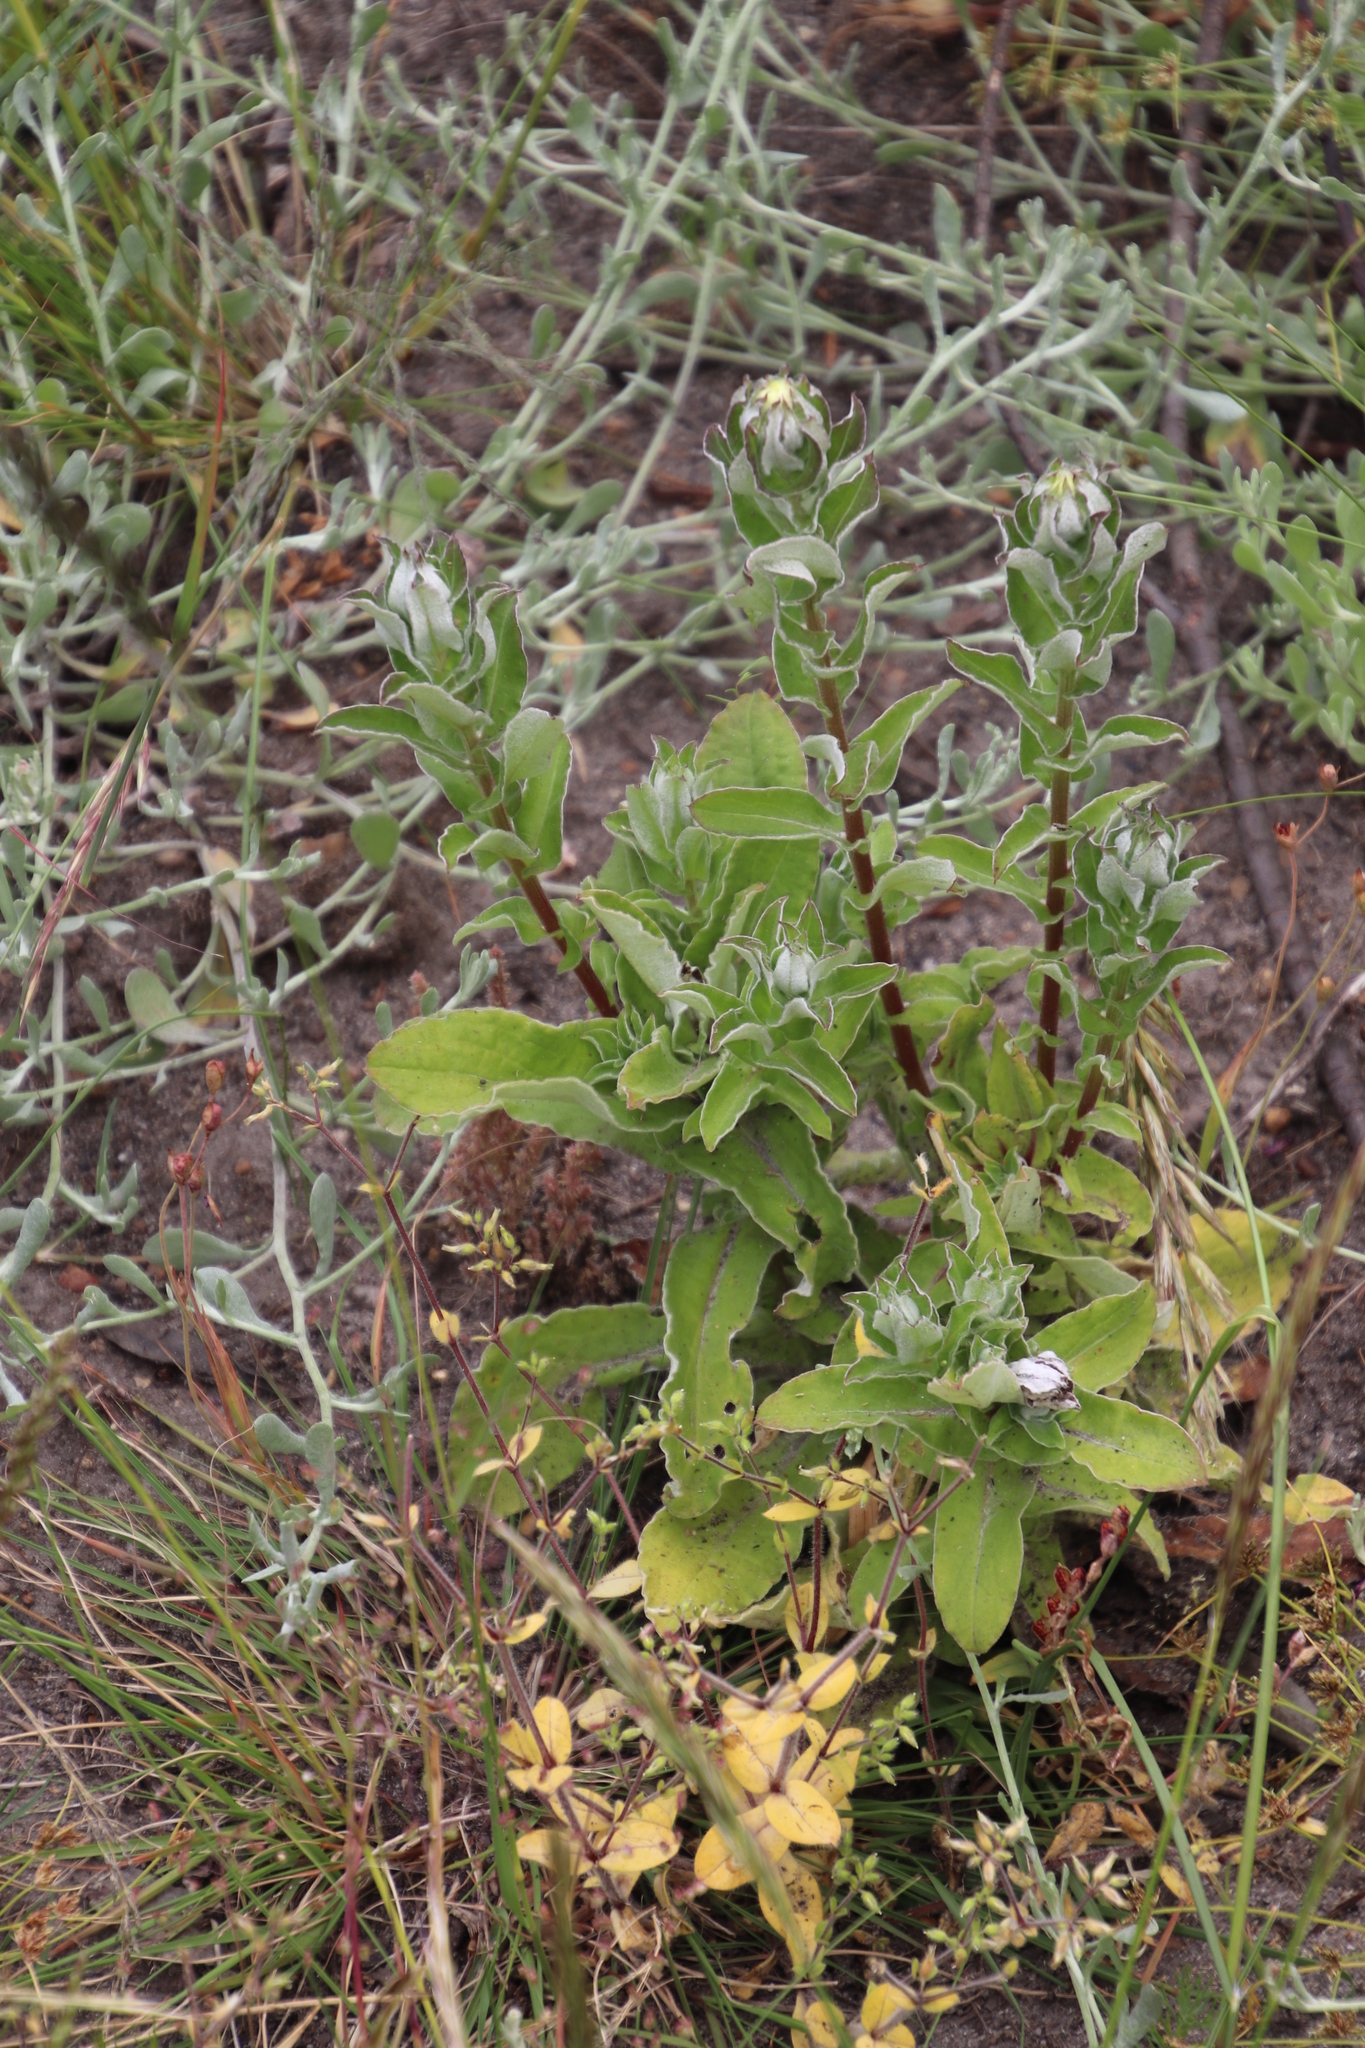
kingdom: Plantae
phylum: Tracheophyta
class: Magnoliopsida
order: Asterales
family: Asteraceae
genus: Helichrysum
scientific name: Helichrysum foetidum
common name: Stinking everlasting
